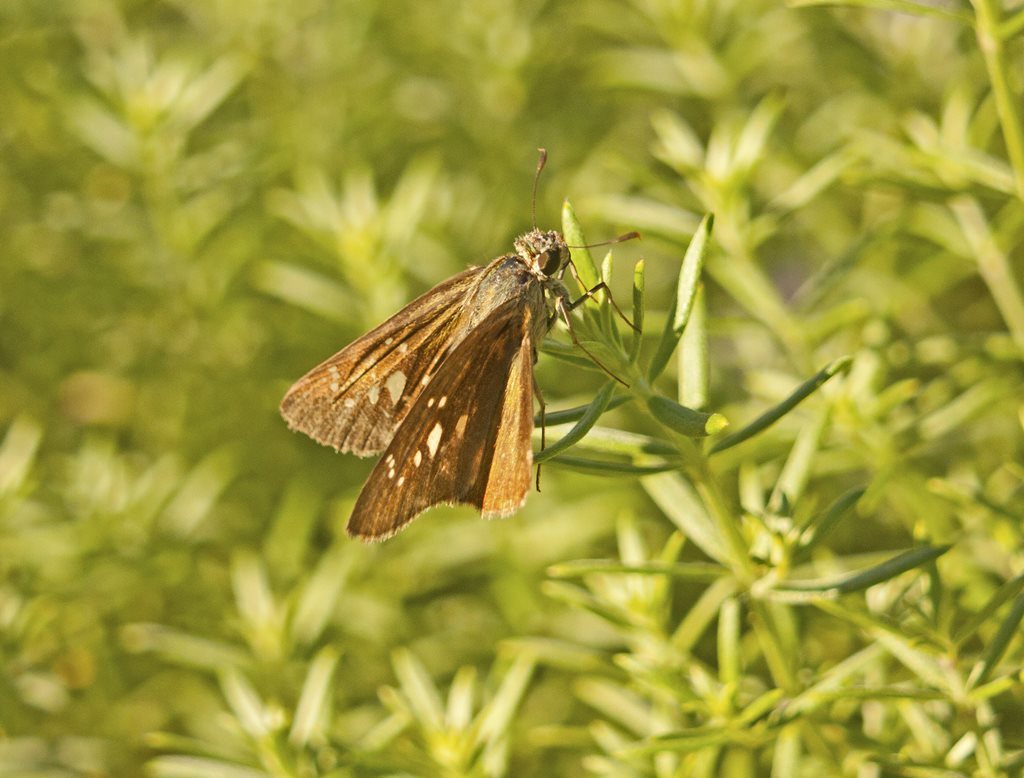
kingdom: Animalia
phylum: Arthropoda
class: Insecta
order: Lepidoptera
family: Hesperiidae
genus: Pelopidas
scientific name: Pelopidas agna
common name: Little branded swift
